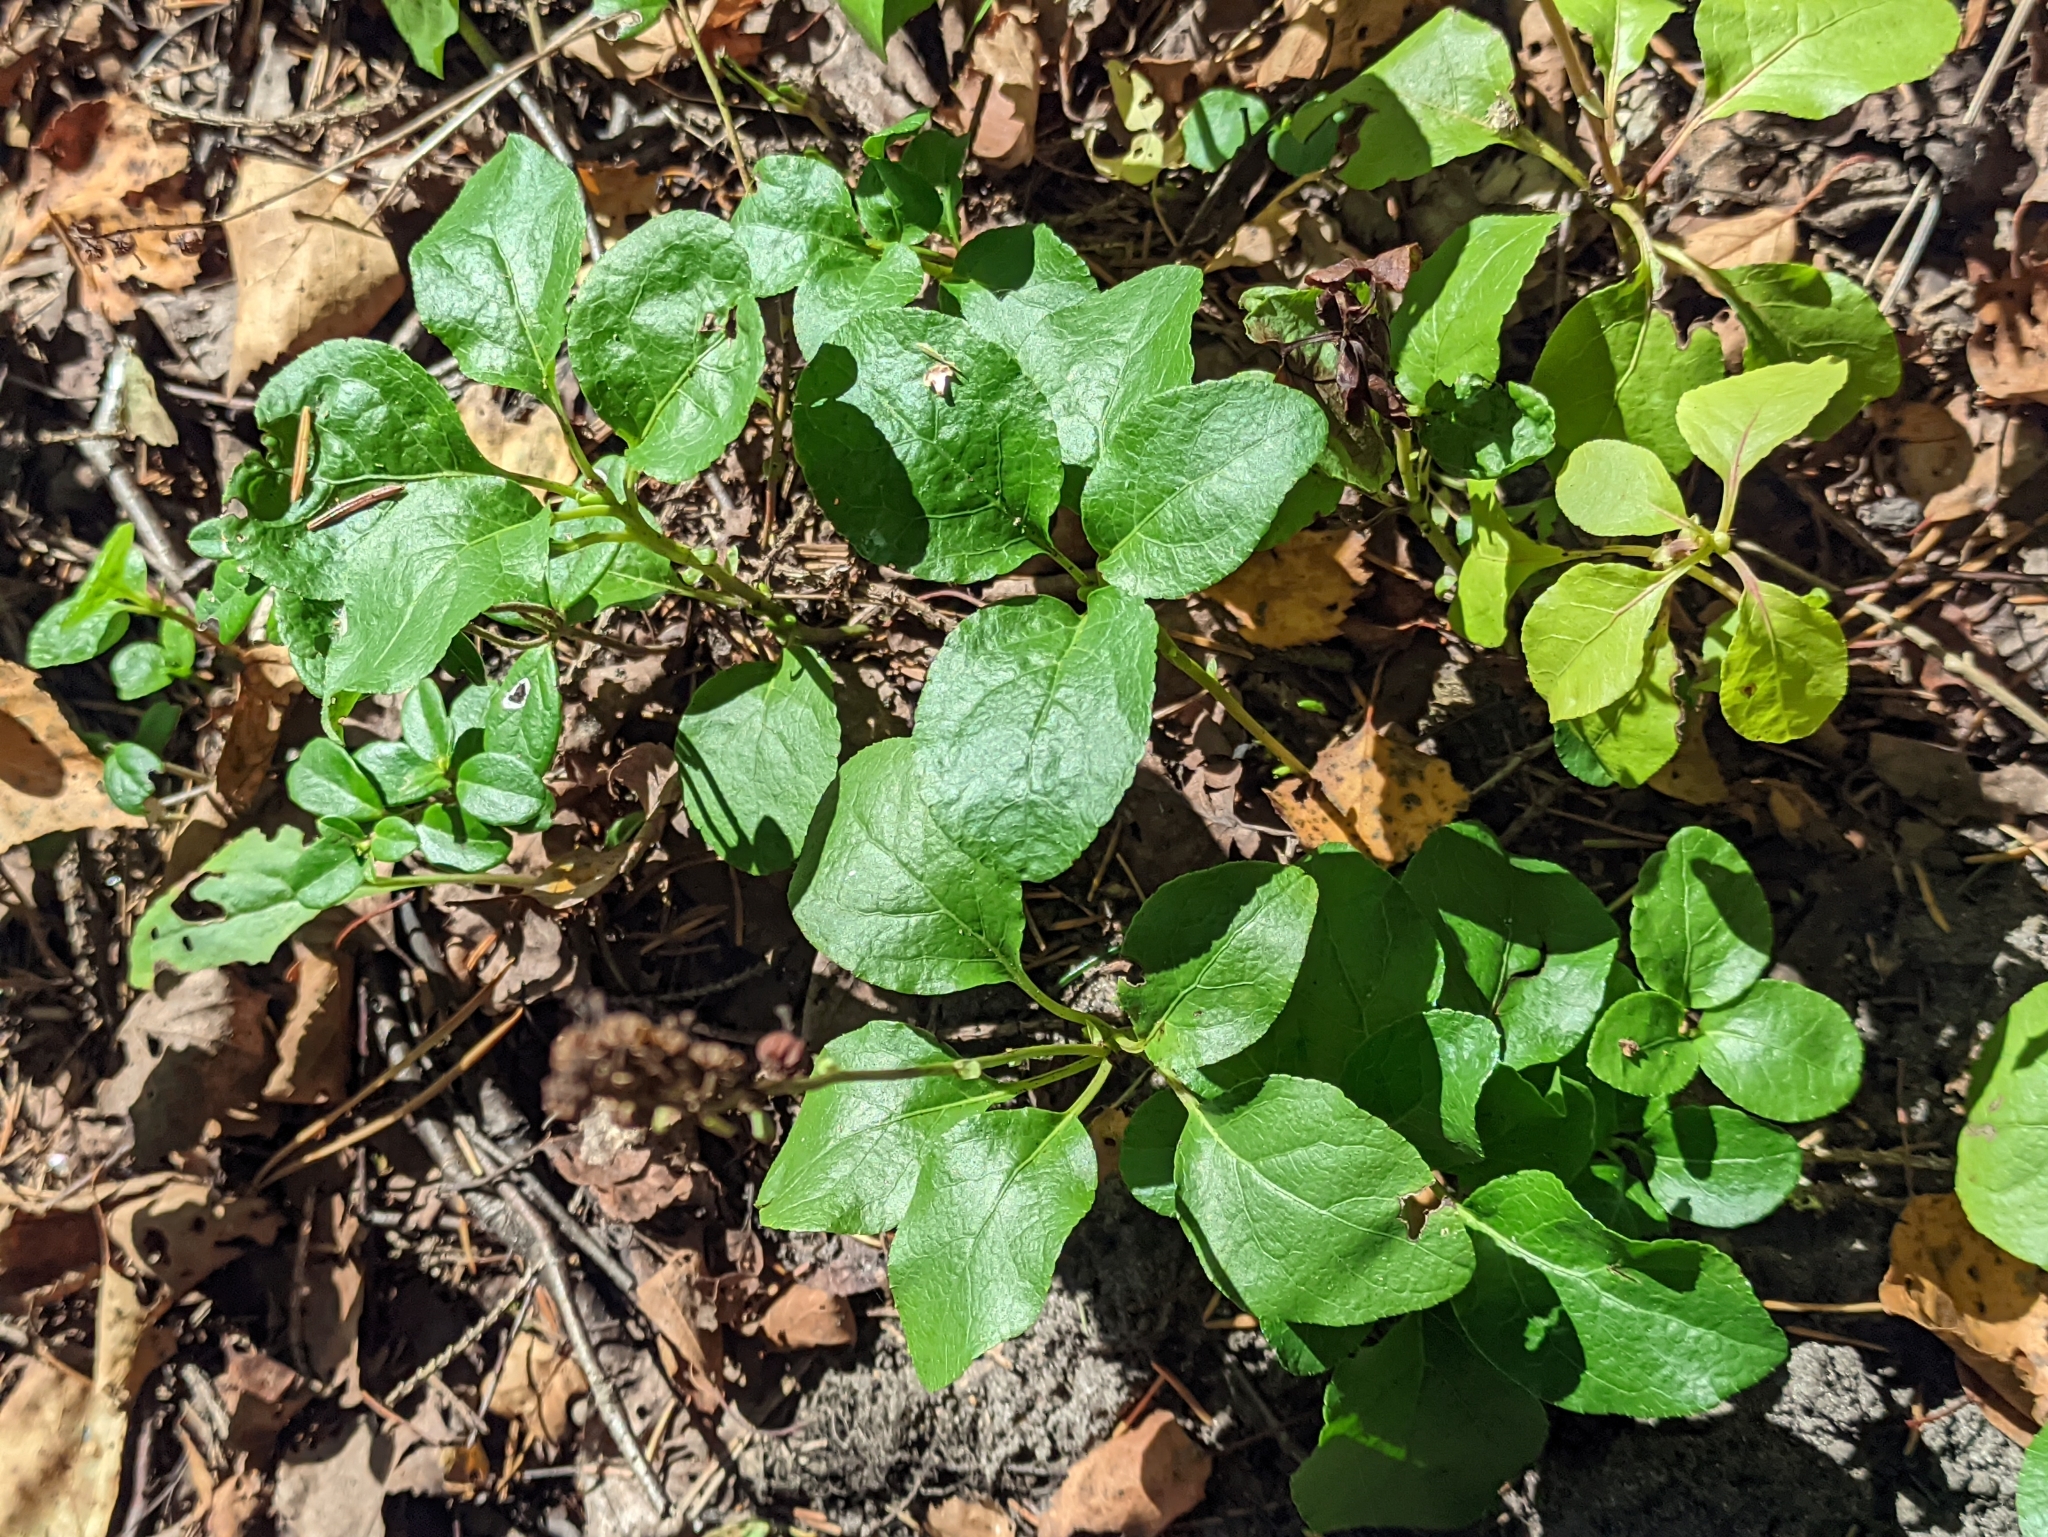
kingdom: Plantae
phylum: Tracheophyta
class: Magnoliopsida
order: Ericales
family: Ericaceae
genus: Orthilia
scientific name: Orthilia secunda
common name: One-sided orthilia
